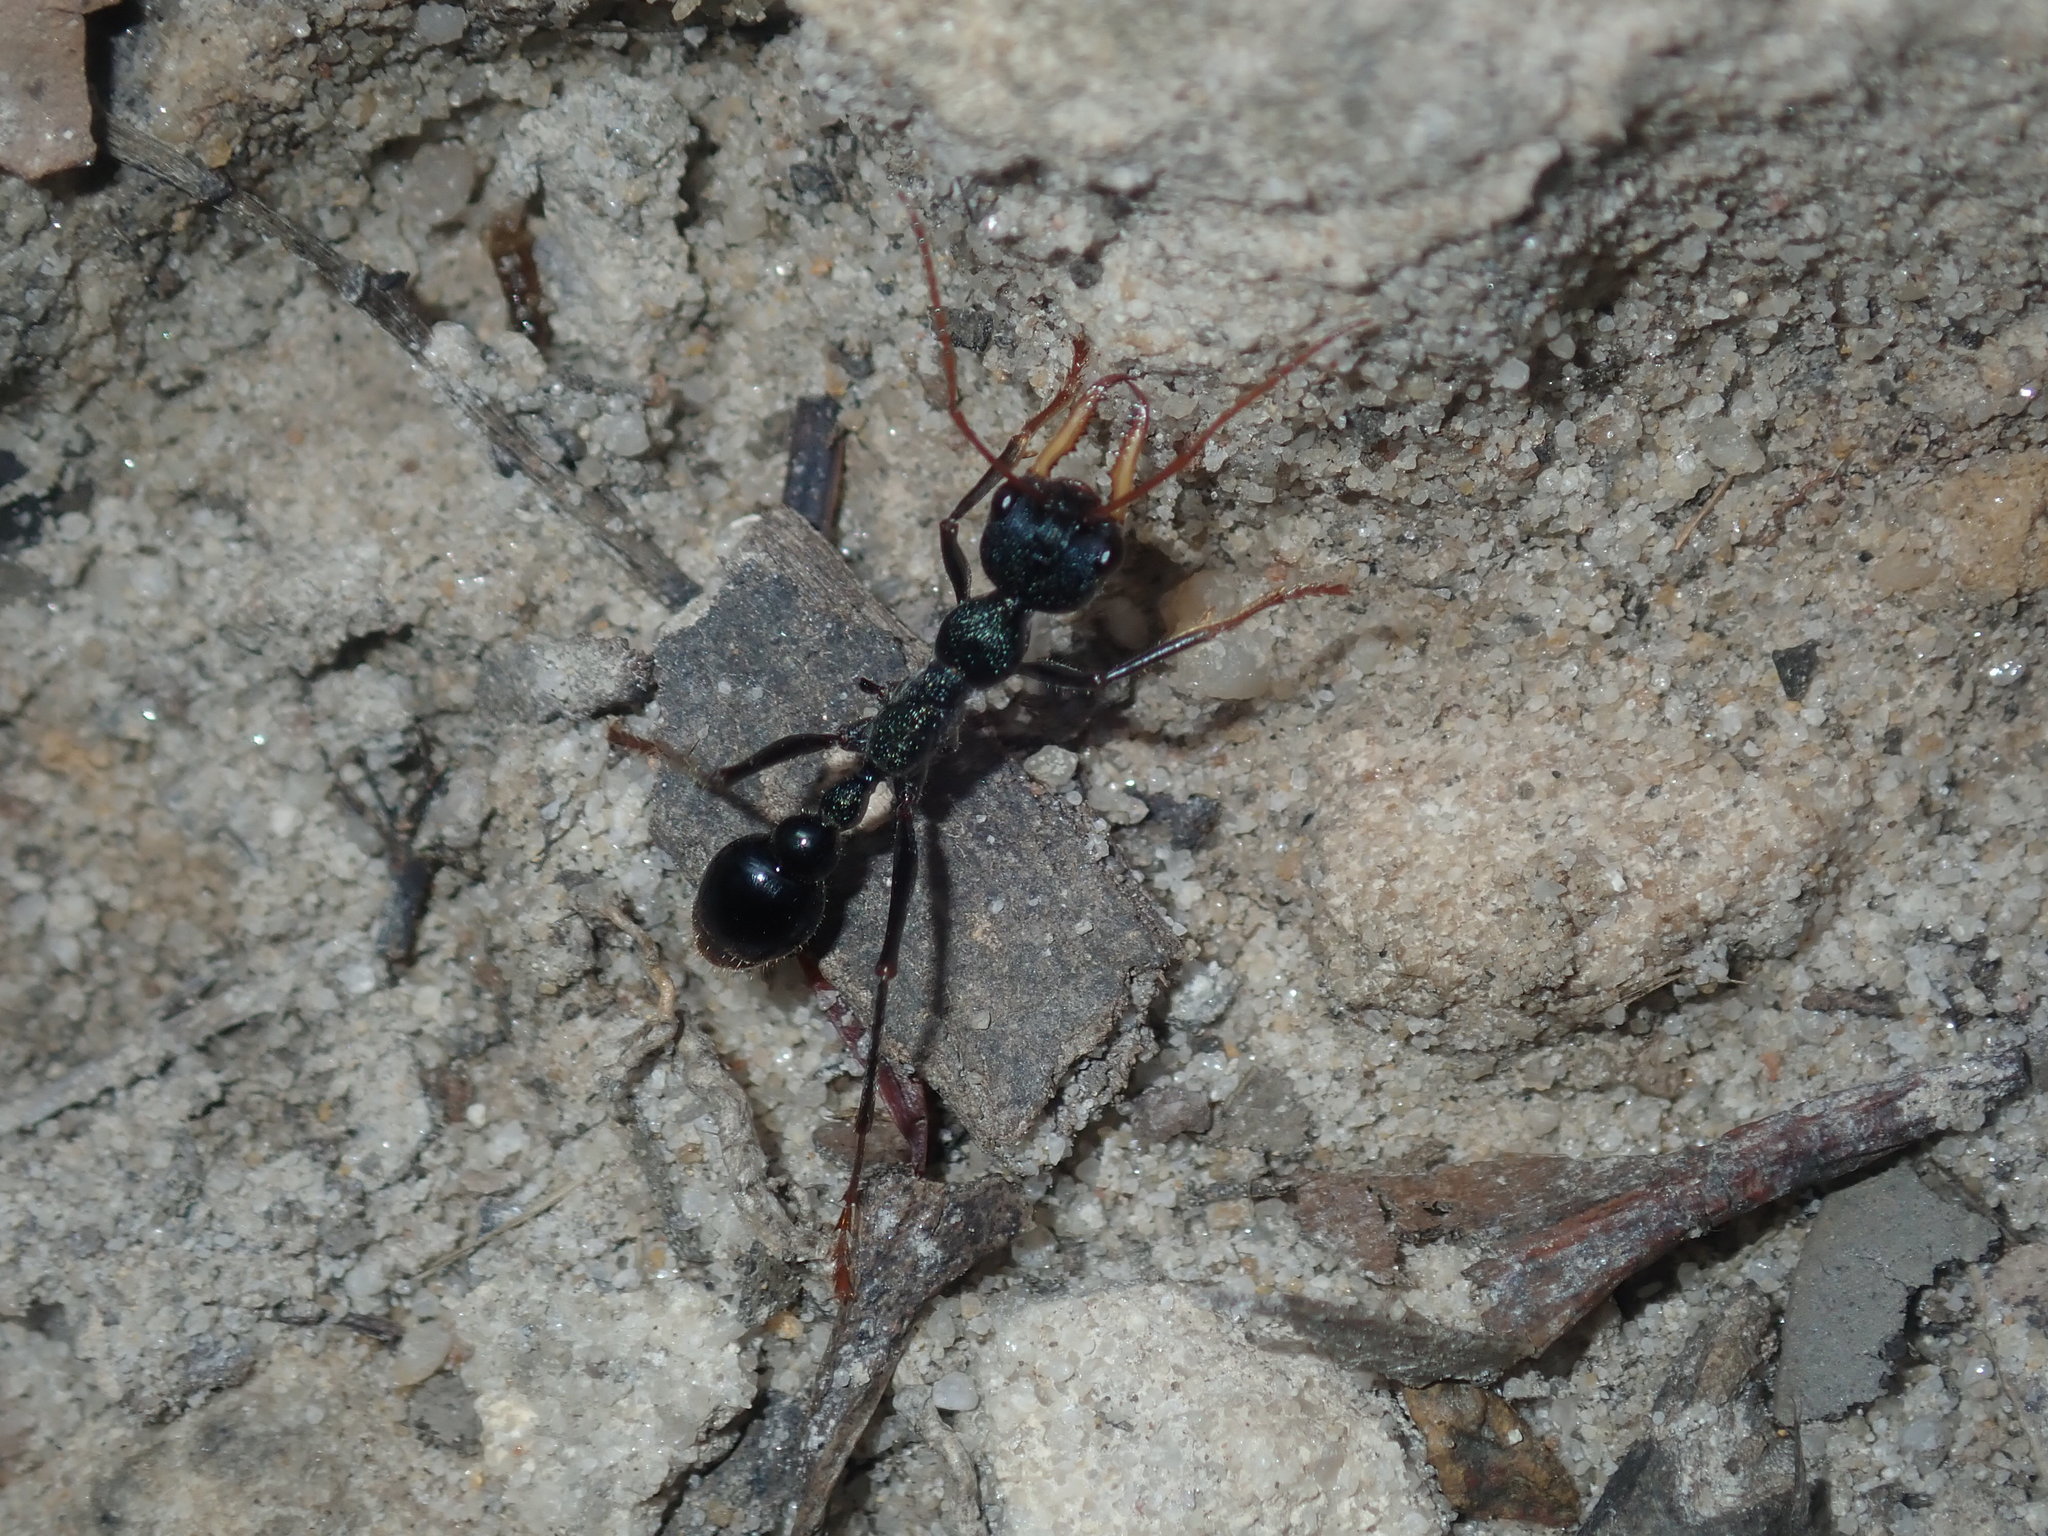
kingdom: Animalia
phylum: Arthropoda
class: Insecta
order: Hymenoptera
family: Formicidae
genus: Myrmecia
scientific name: Myrmecia tarsata
